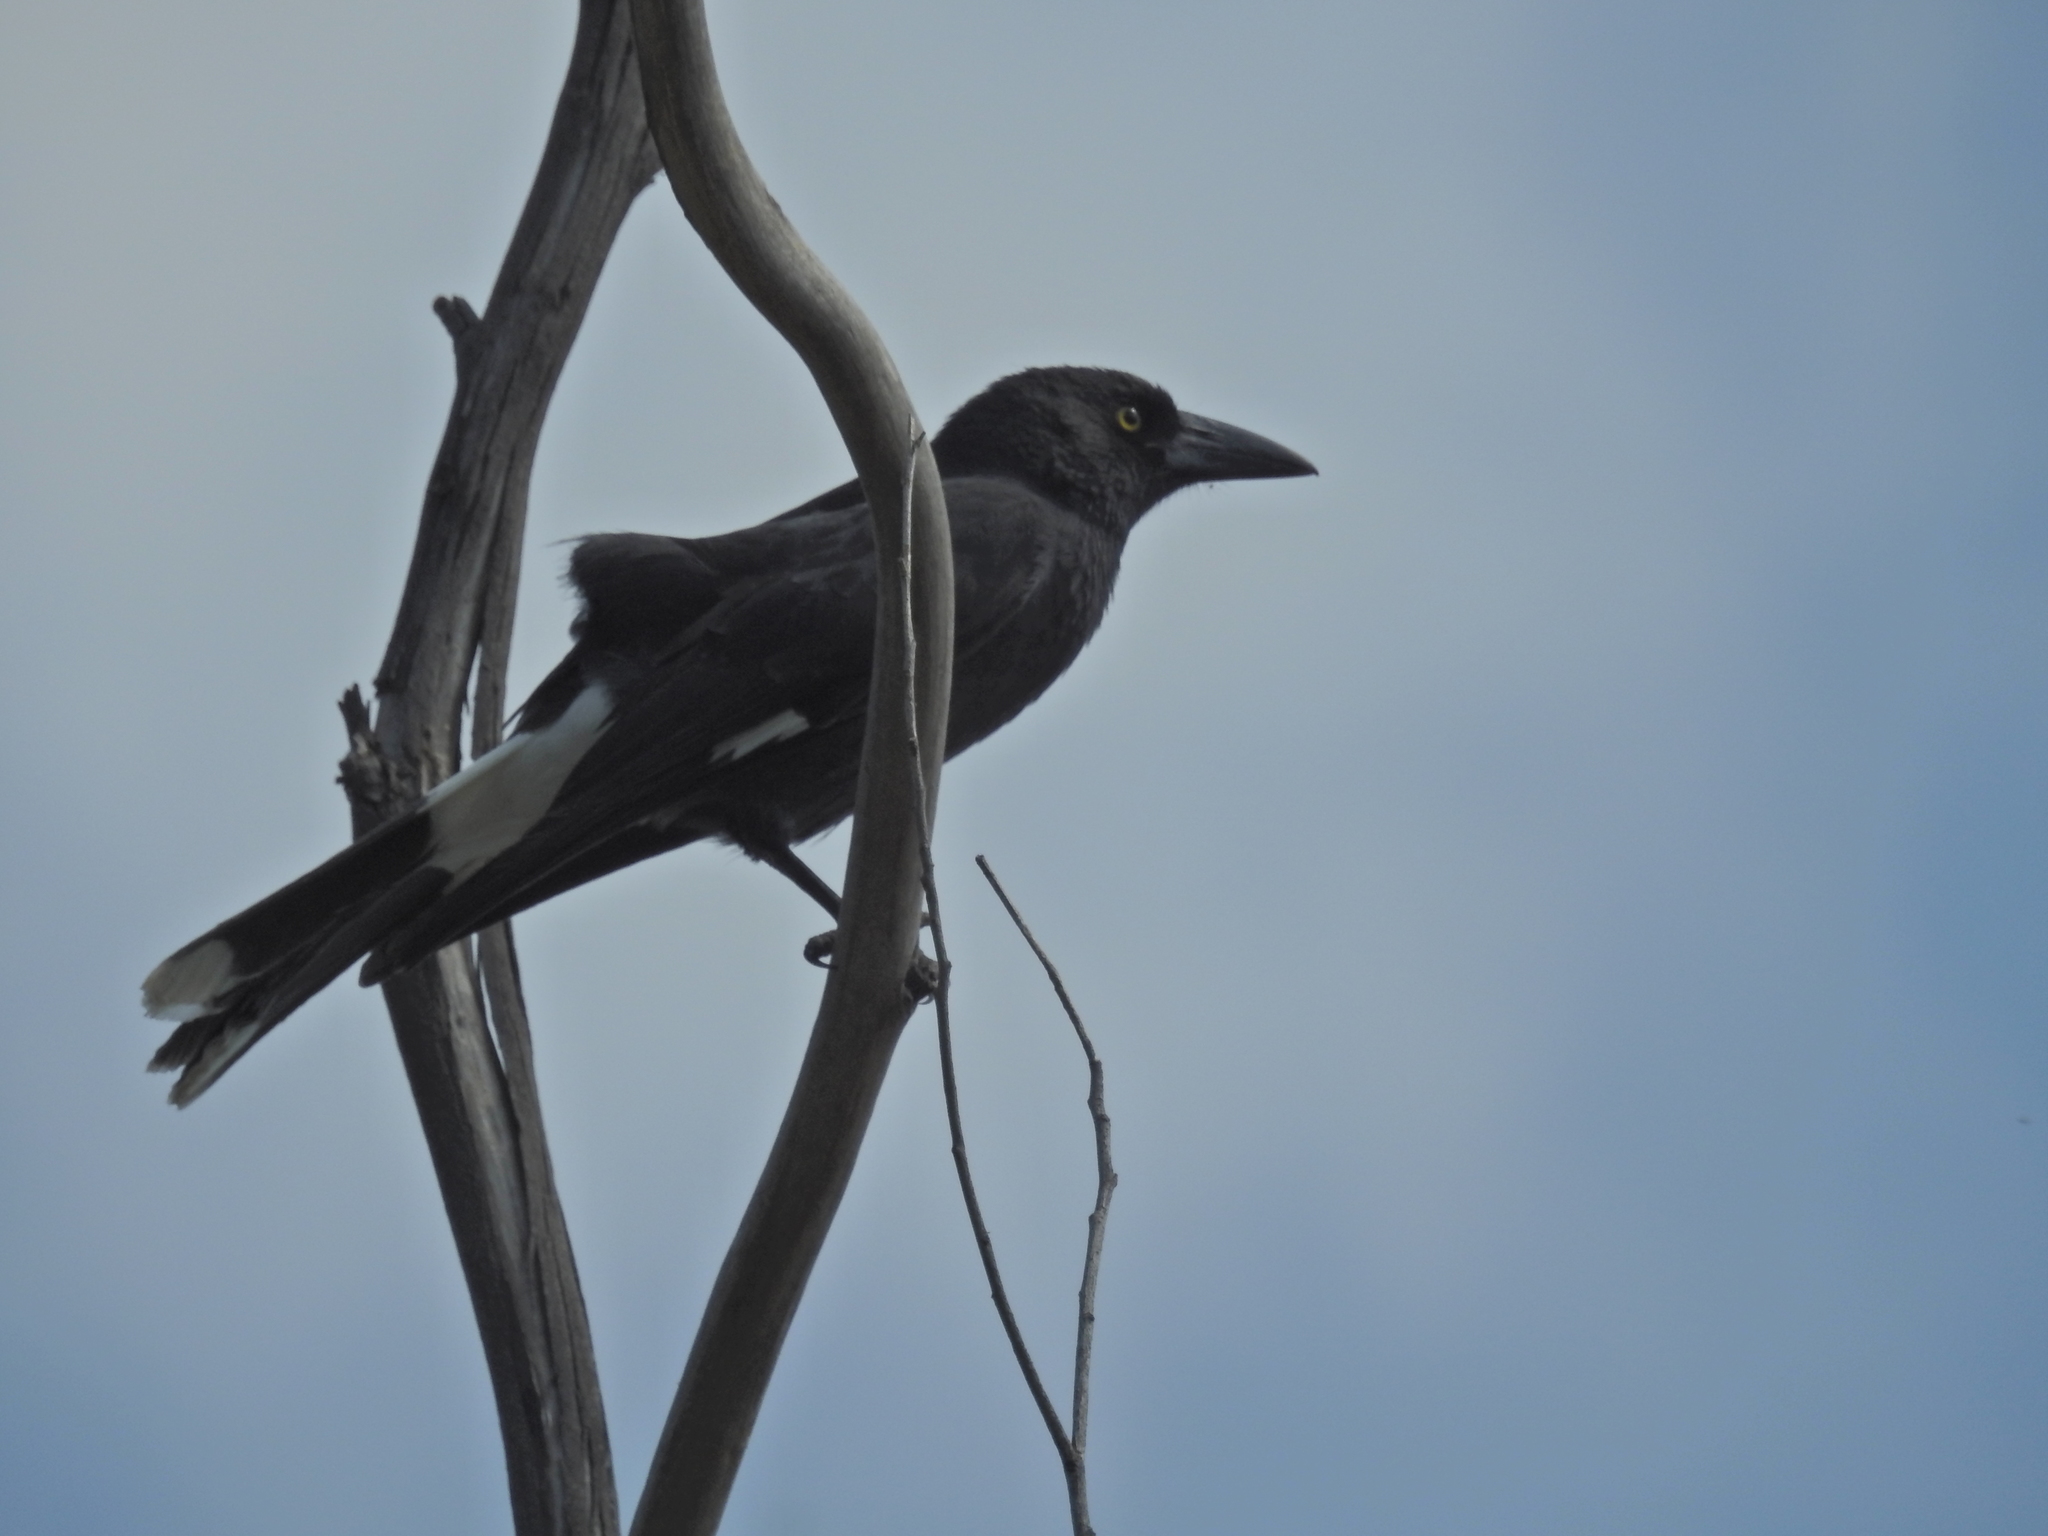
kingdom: Animalia
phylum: Chordata
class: Aves
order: Passeriformes
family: Cracticidae
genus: Strepera
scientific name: Strepera graculina
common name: Pied currawong
